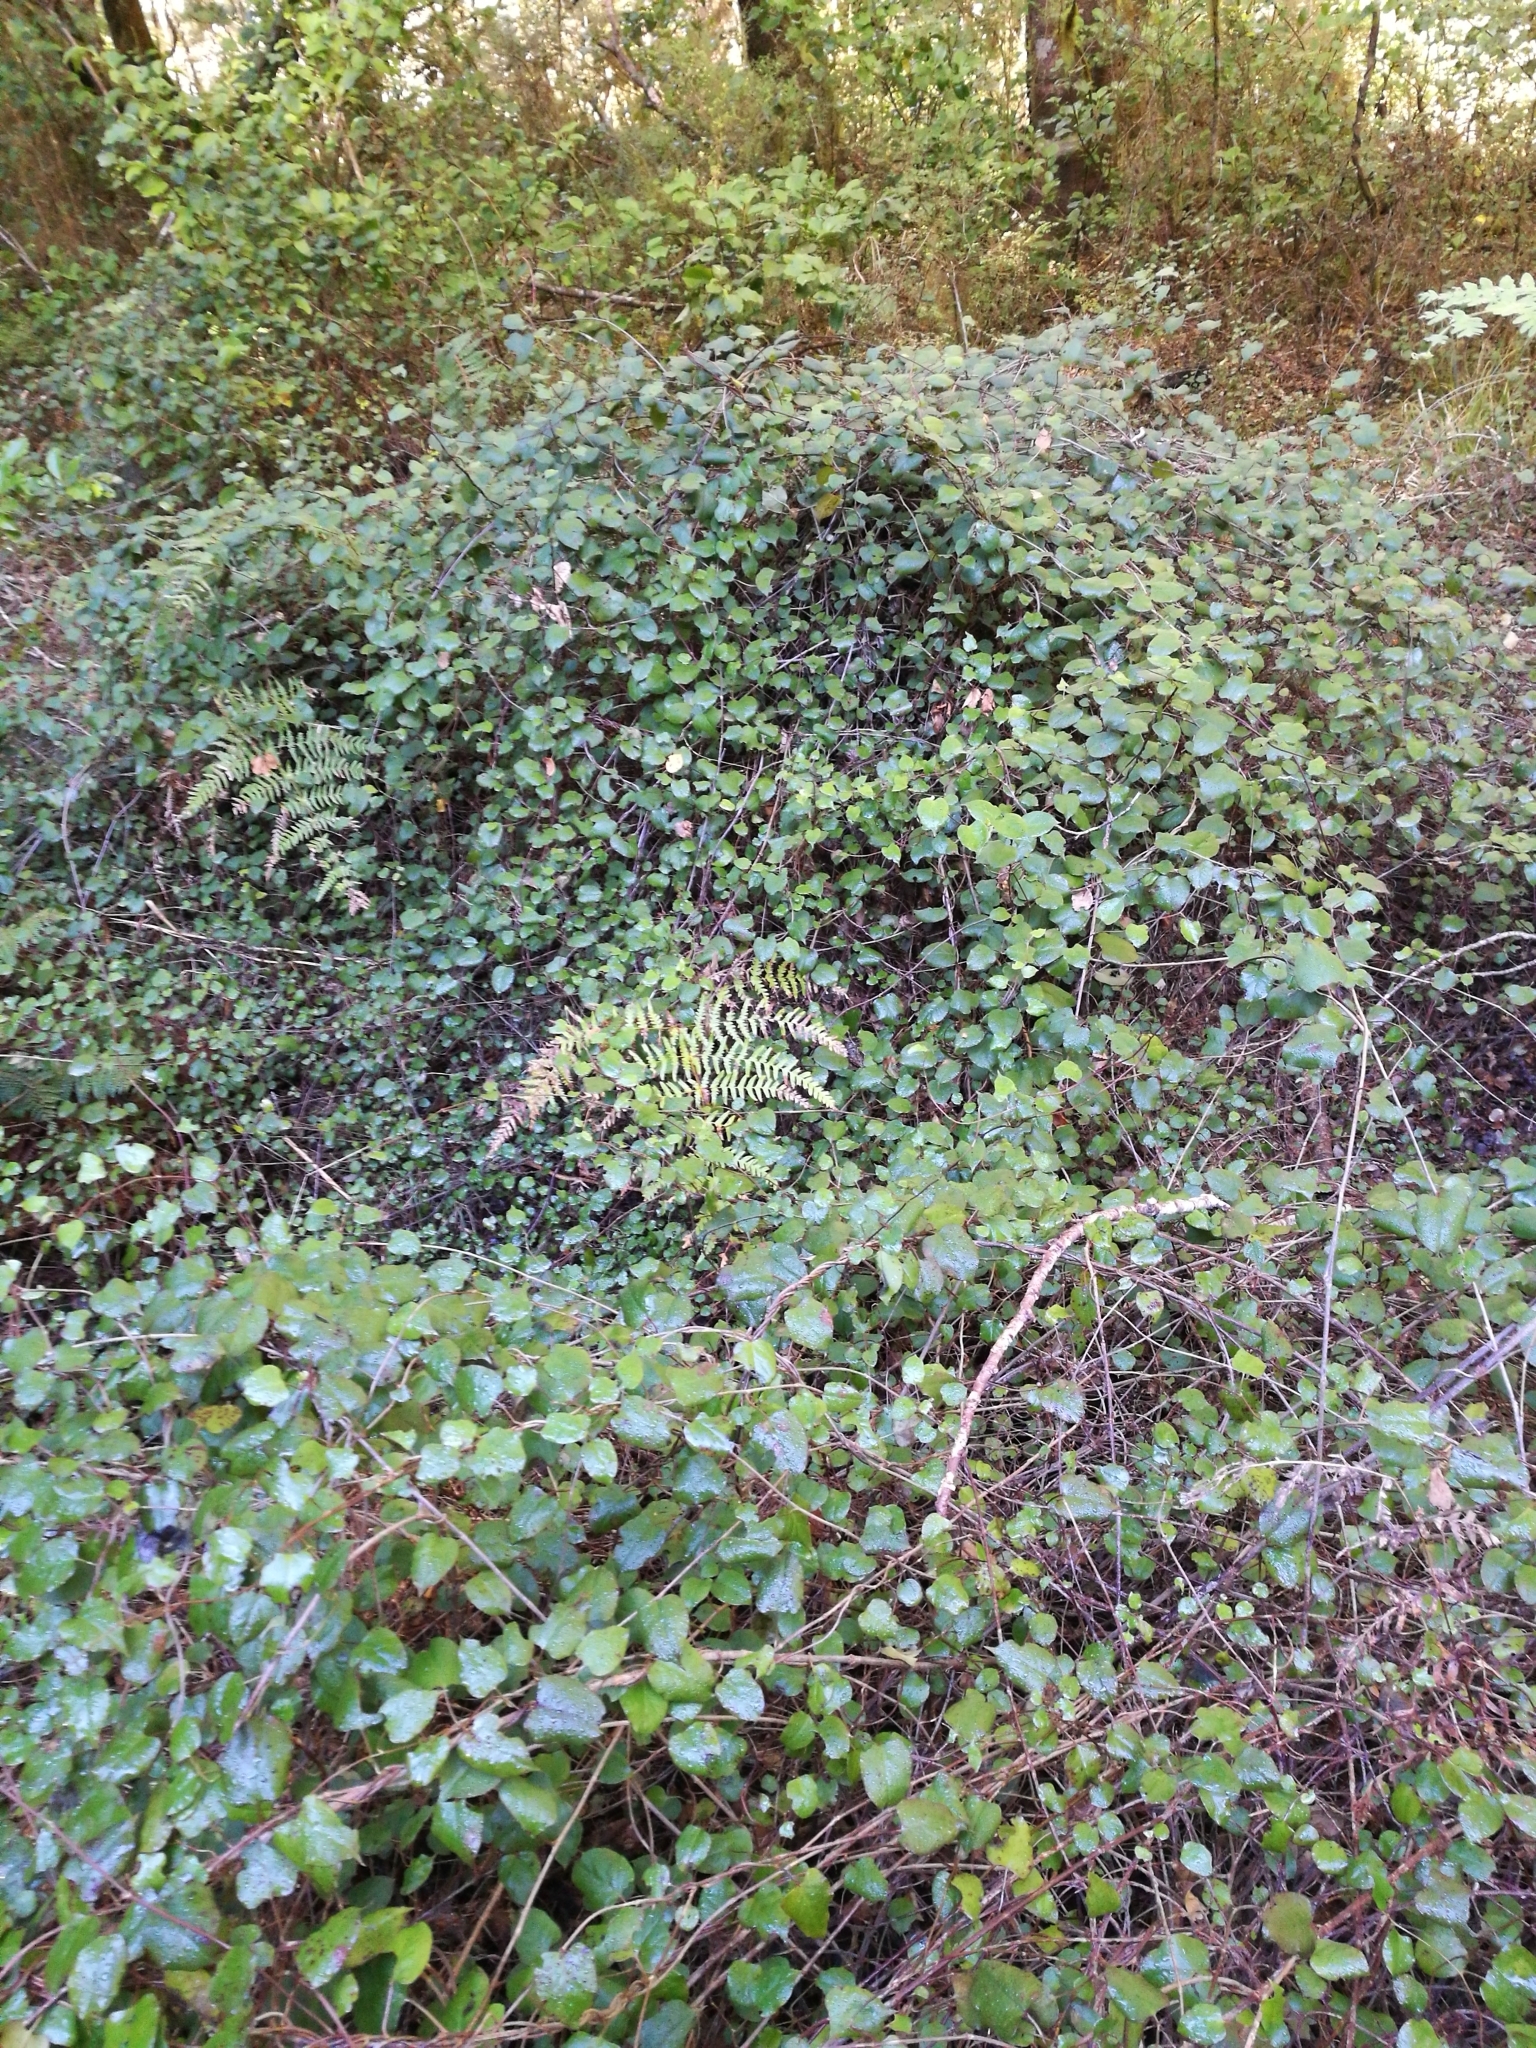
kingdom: Plantae
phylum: Tracheophyta
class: Magnoliopsida
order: Caryophyllales
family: Polygonaceae
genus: Muehlenbeckia
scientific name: Muehlenbeckia australis
